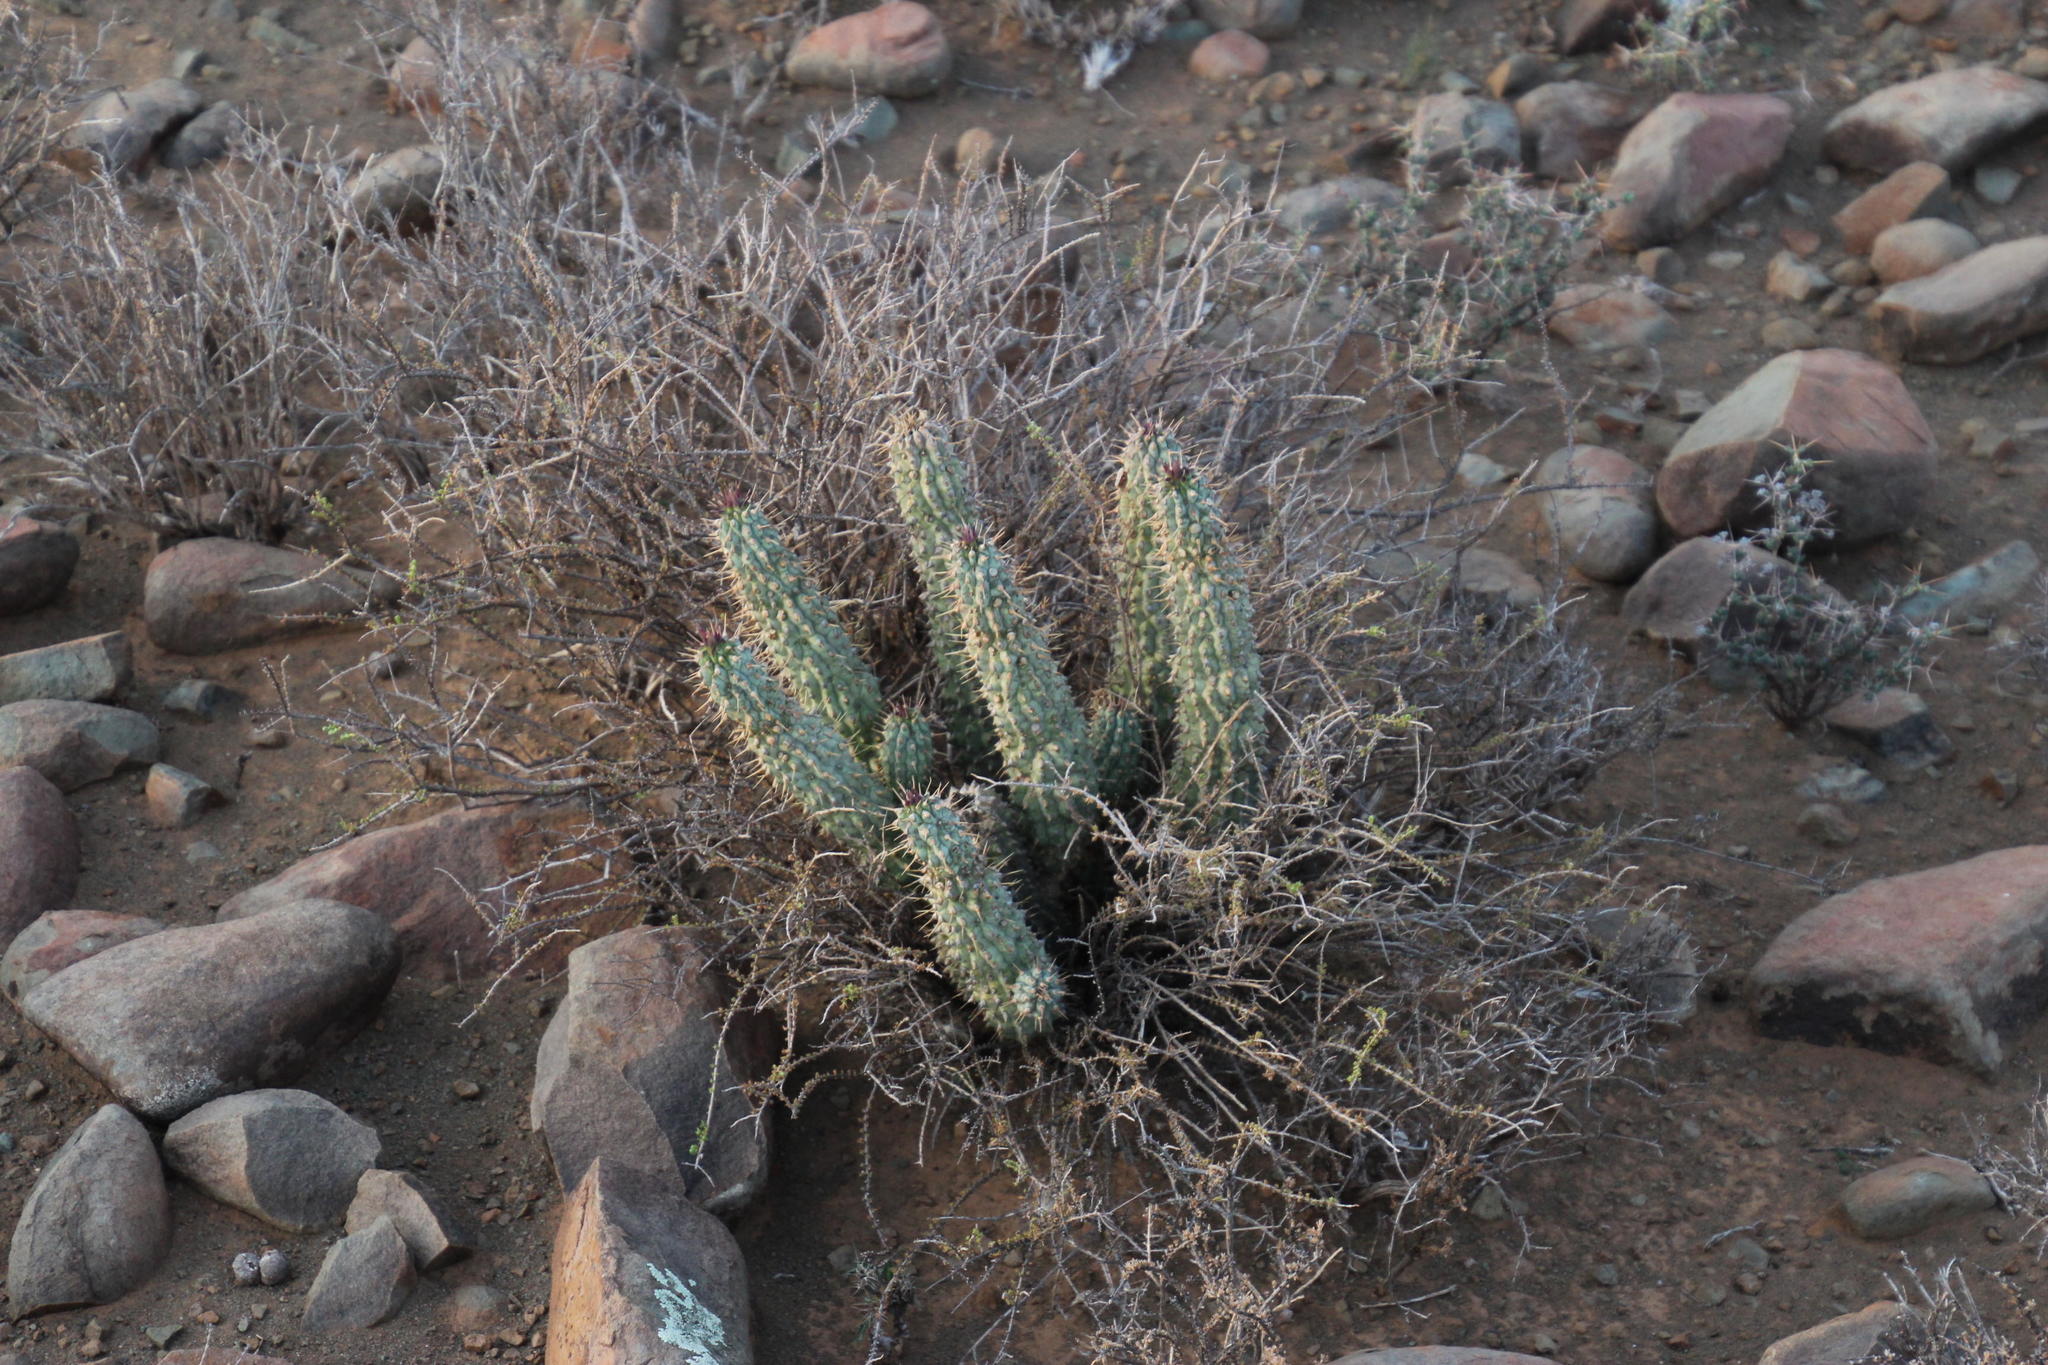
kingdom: Plantae
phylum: Tracheophyta
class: Magnoliopsida
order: Gentianales
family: Apocynaceae
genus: Hoodia
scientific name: Hoodia gordonii
